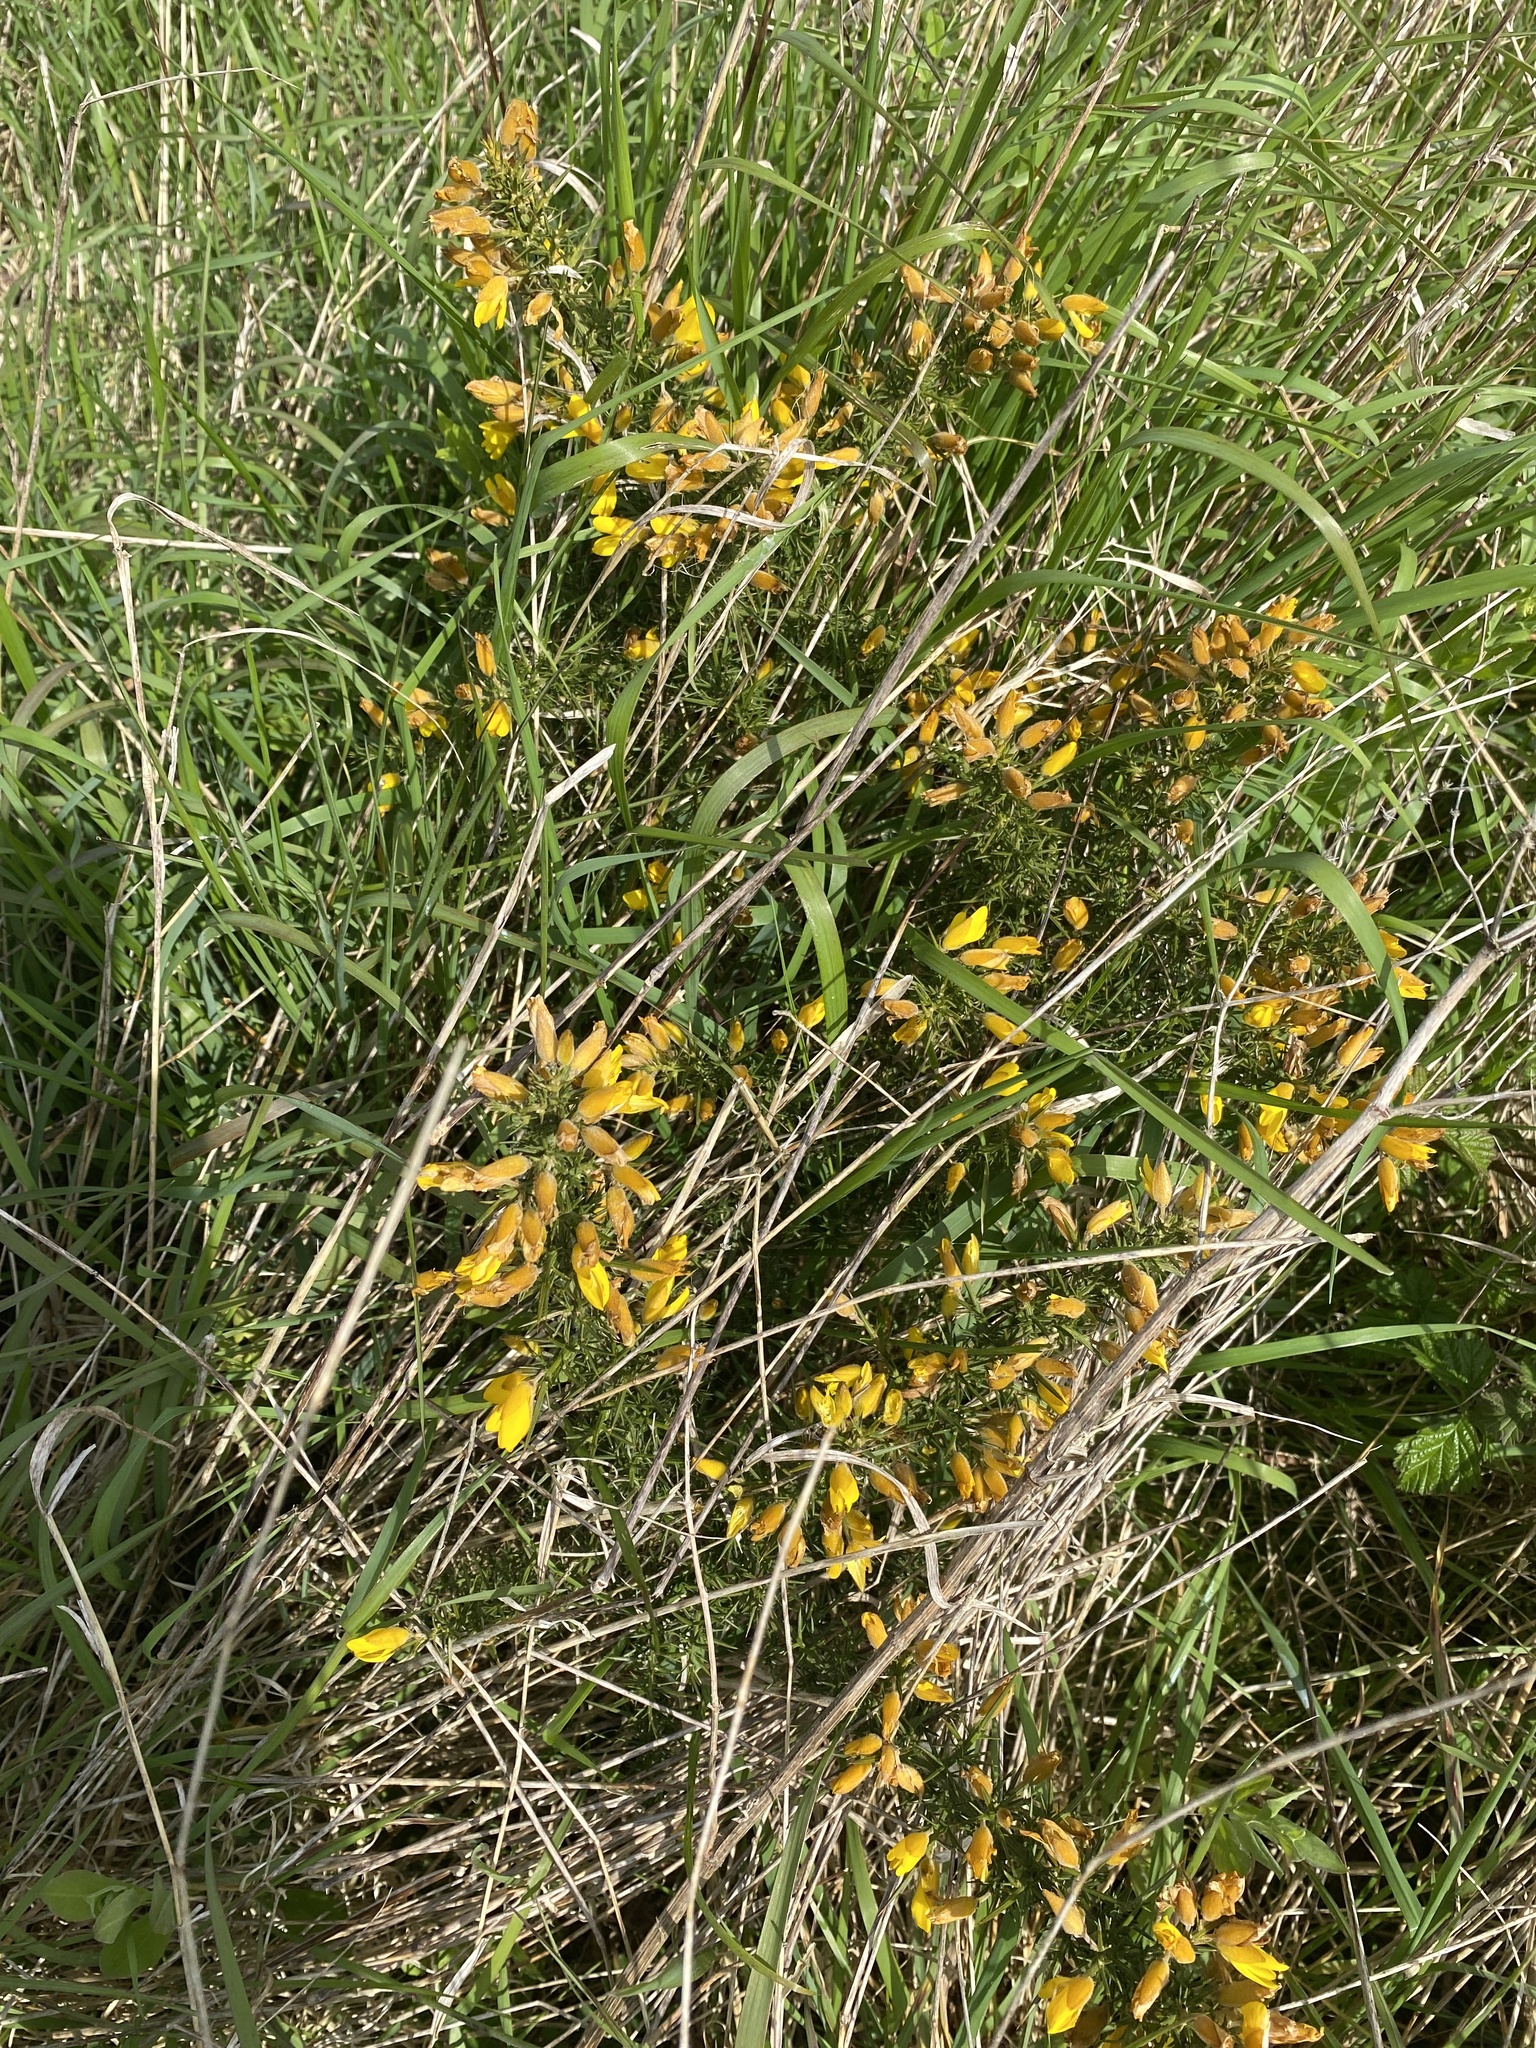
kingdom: Plantae
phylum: Tracheophyta
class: Magnoliopsida
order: Fabales
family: Fabaceae
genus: Ulex
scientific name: Ulex europaeus
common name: Common gorse
